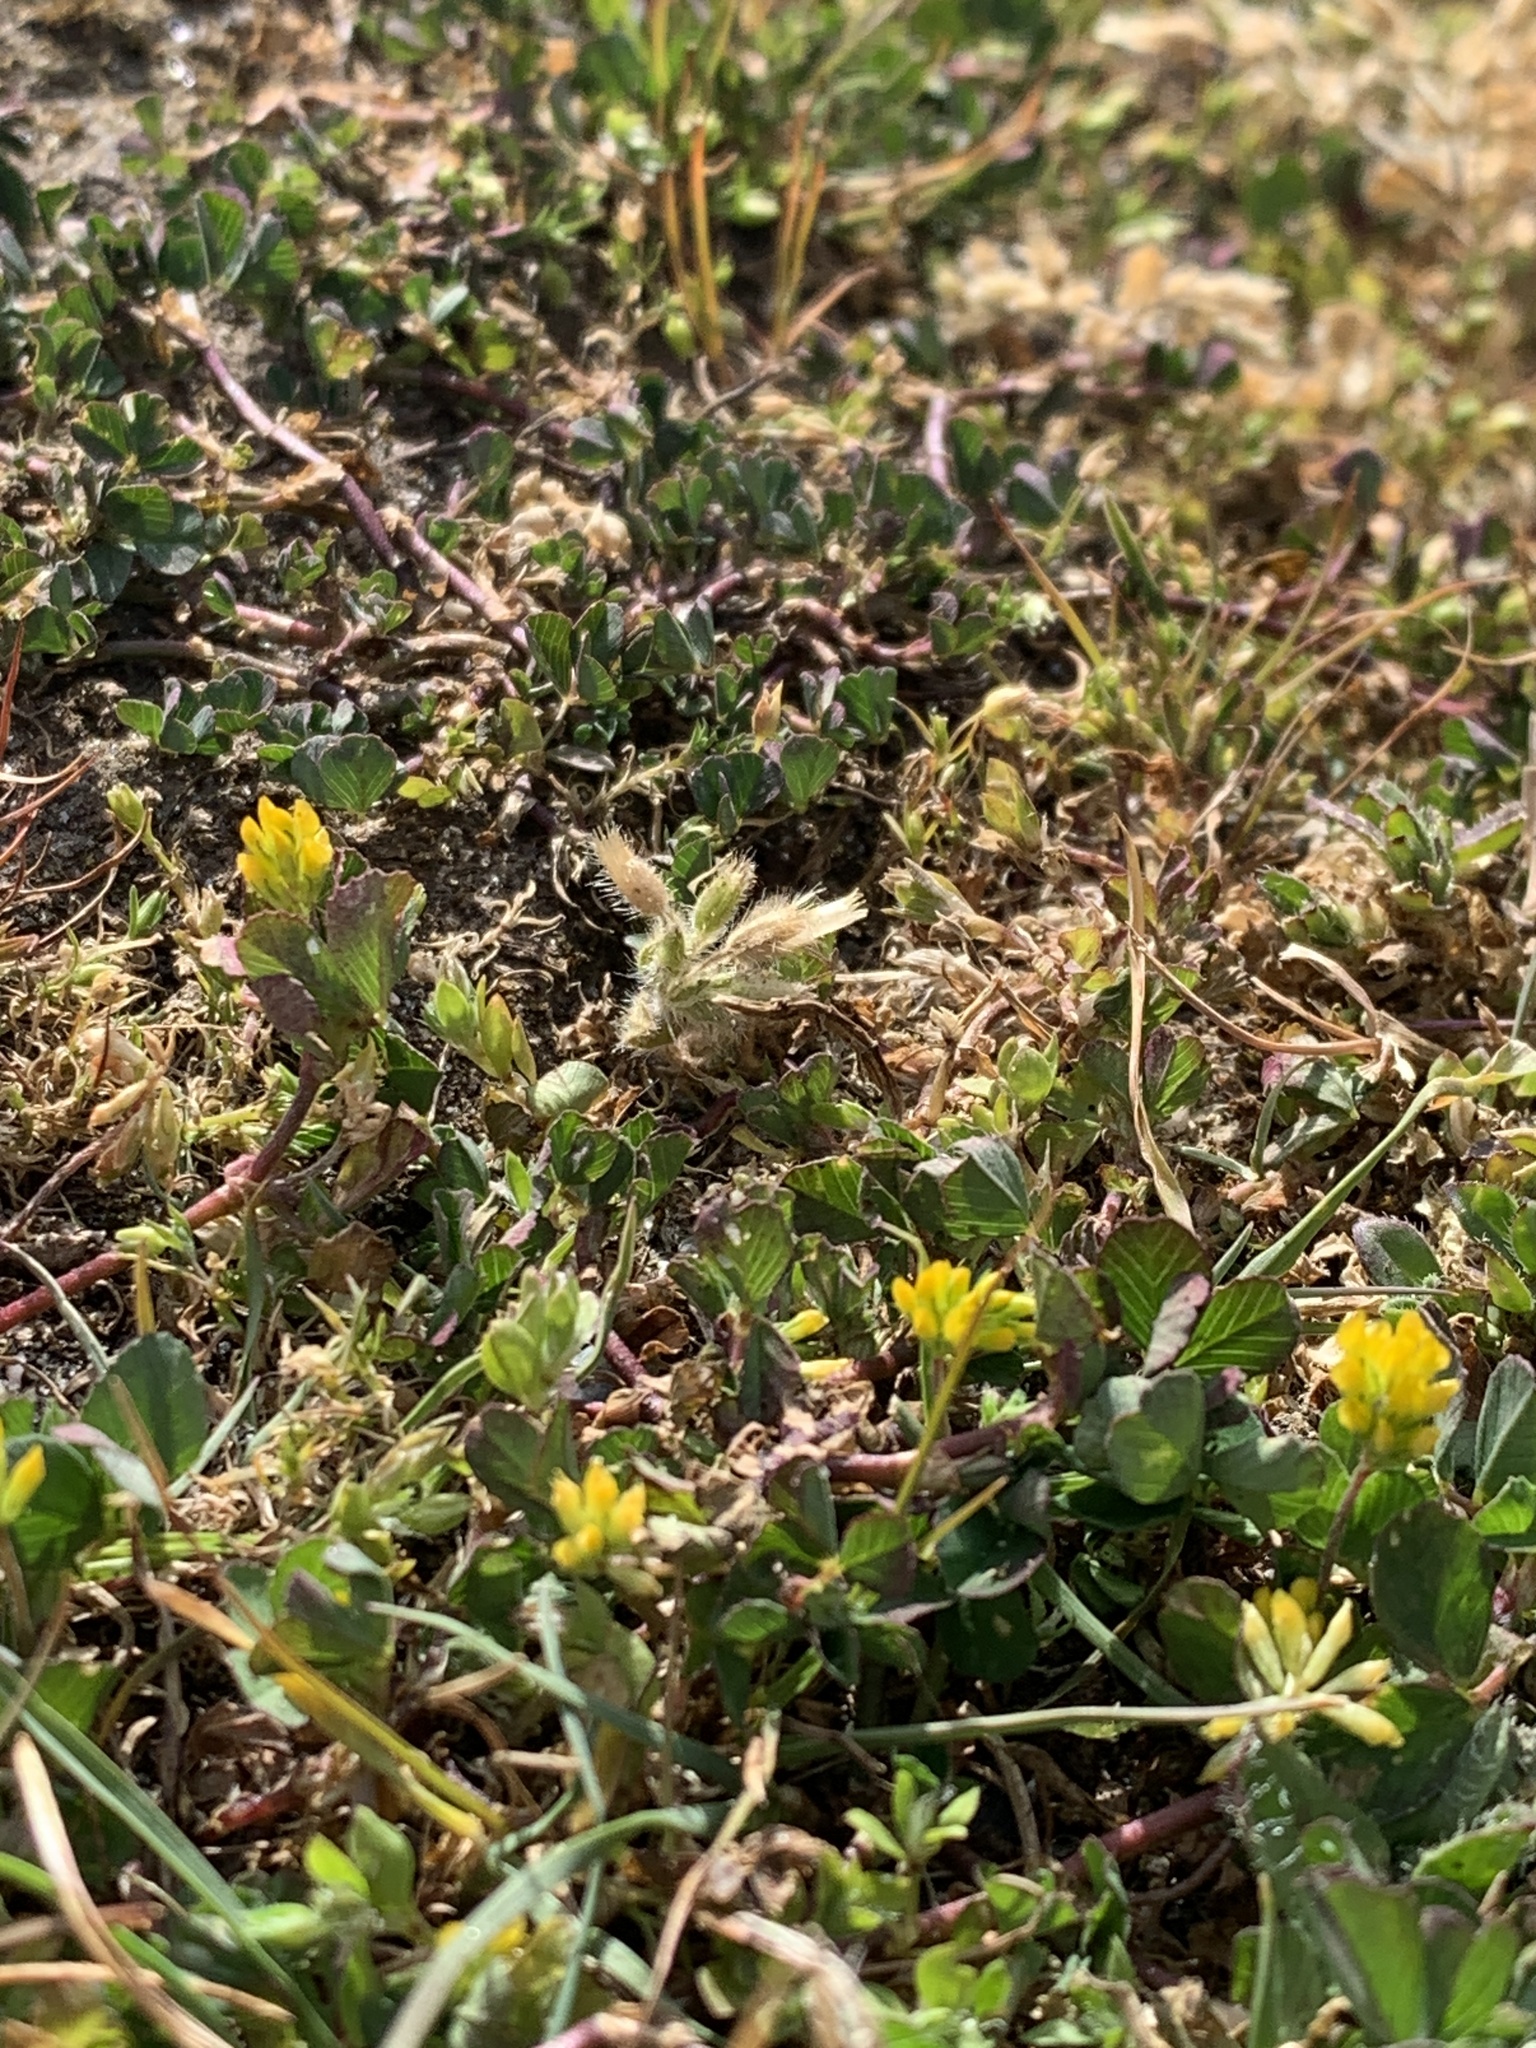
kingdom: Plantae
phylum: Tracheophyta
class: Magnoliopsida
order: Fabales
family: Fabaceae
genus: Trifolium
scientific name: Trifolium dubium
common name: Suckling clover
